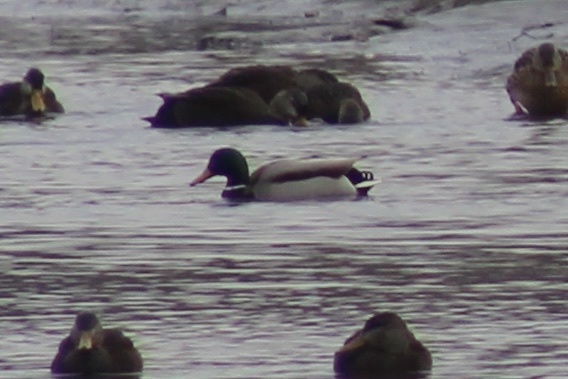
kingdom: Animalia
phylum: Chordata
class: Aves
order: Anseriformes
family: Anatidae
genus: Anas
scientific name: Anas platyrhynchos
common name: Mallard
